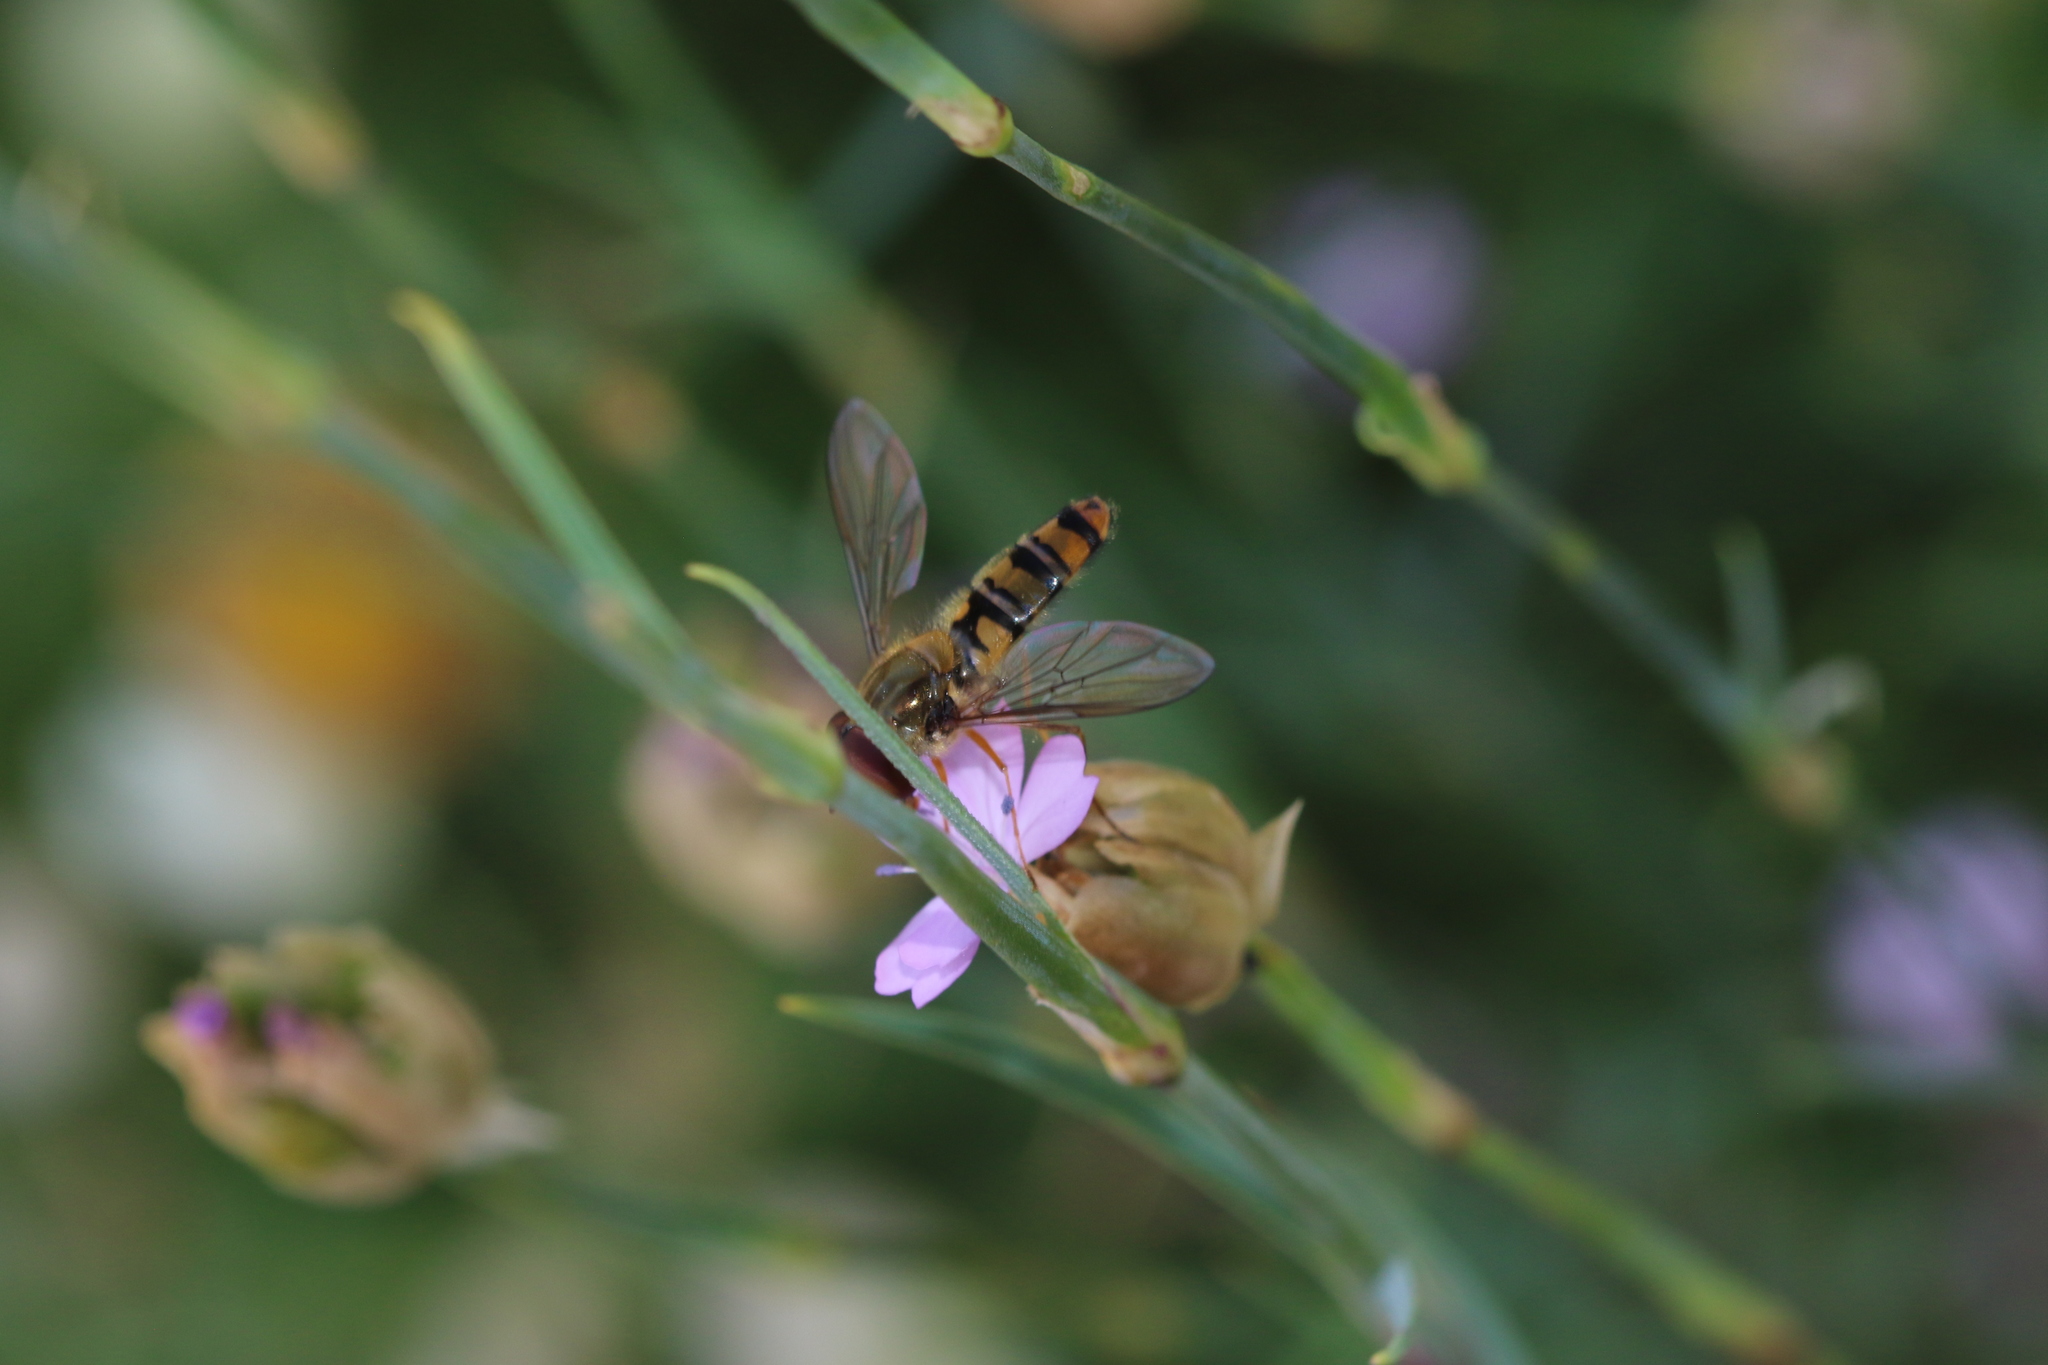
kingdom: Animalia
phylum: Arthropoda
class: Insecta
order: Diptera
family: Syrphidae
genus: Episyrphus
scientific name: Episyrphus balteatus
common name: Marmalade hoverfly
